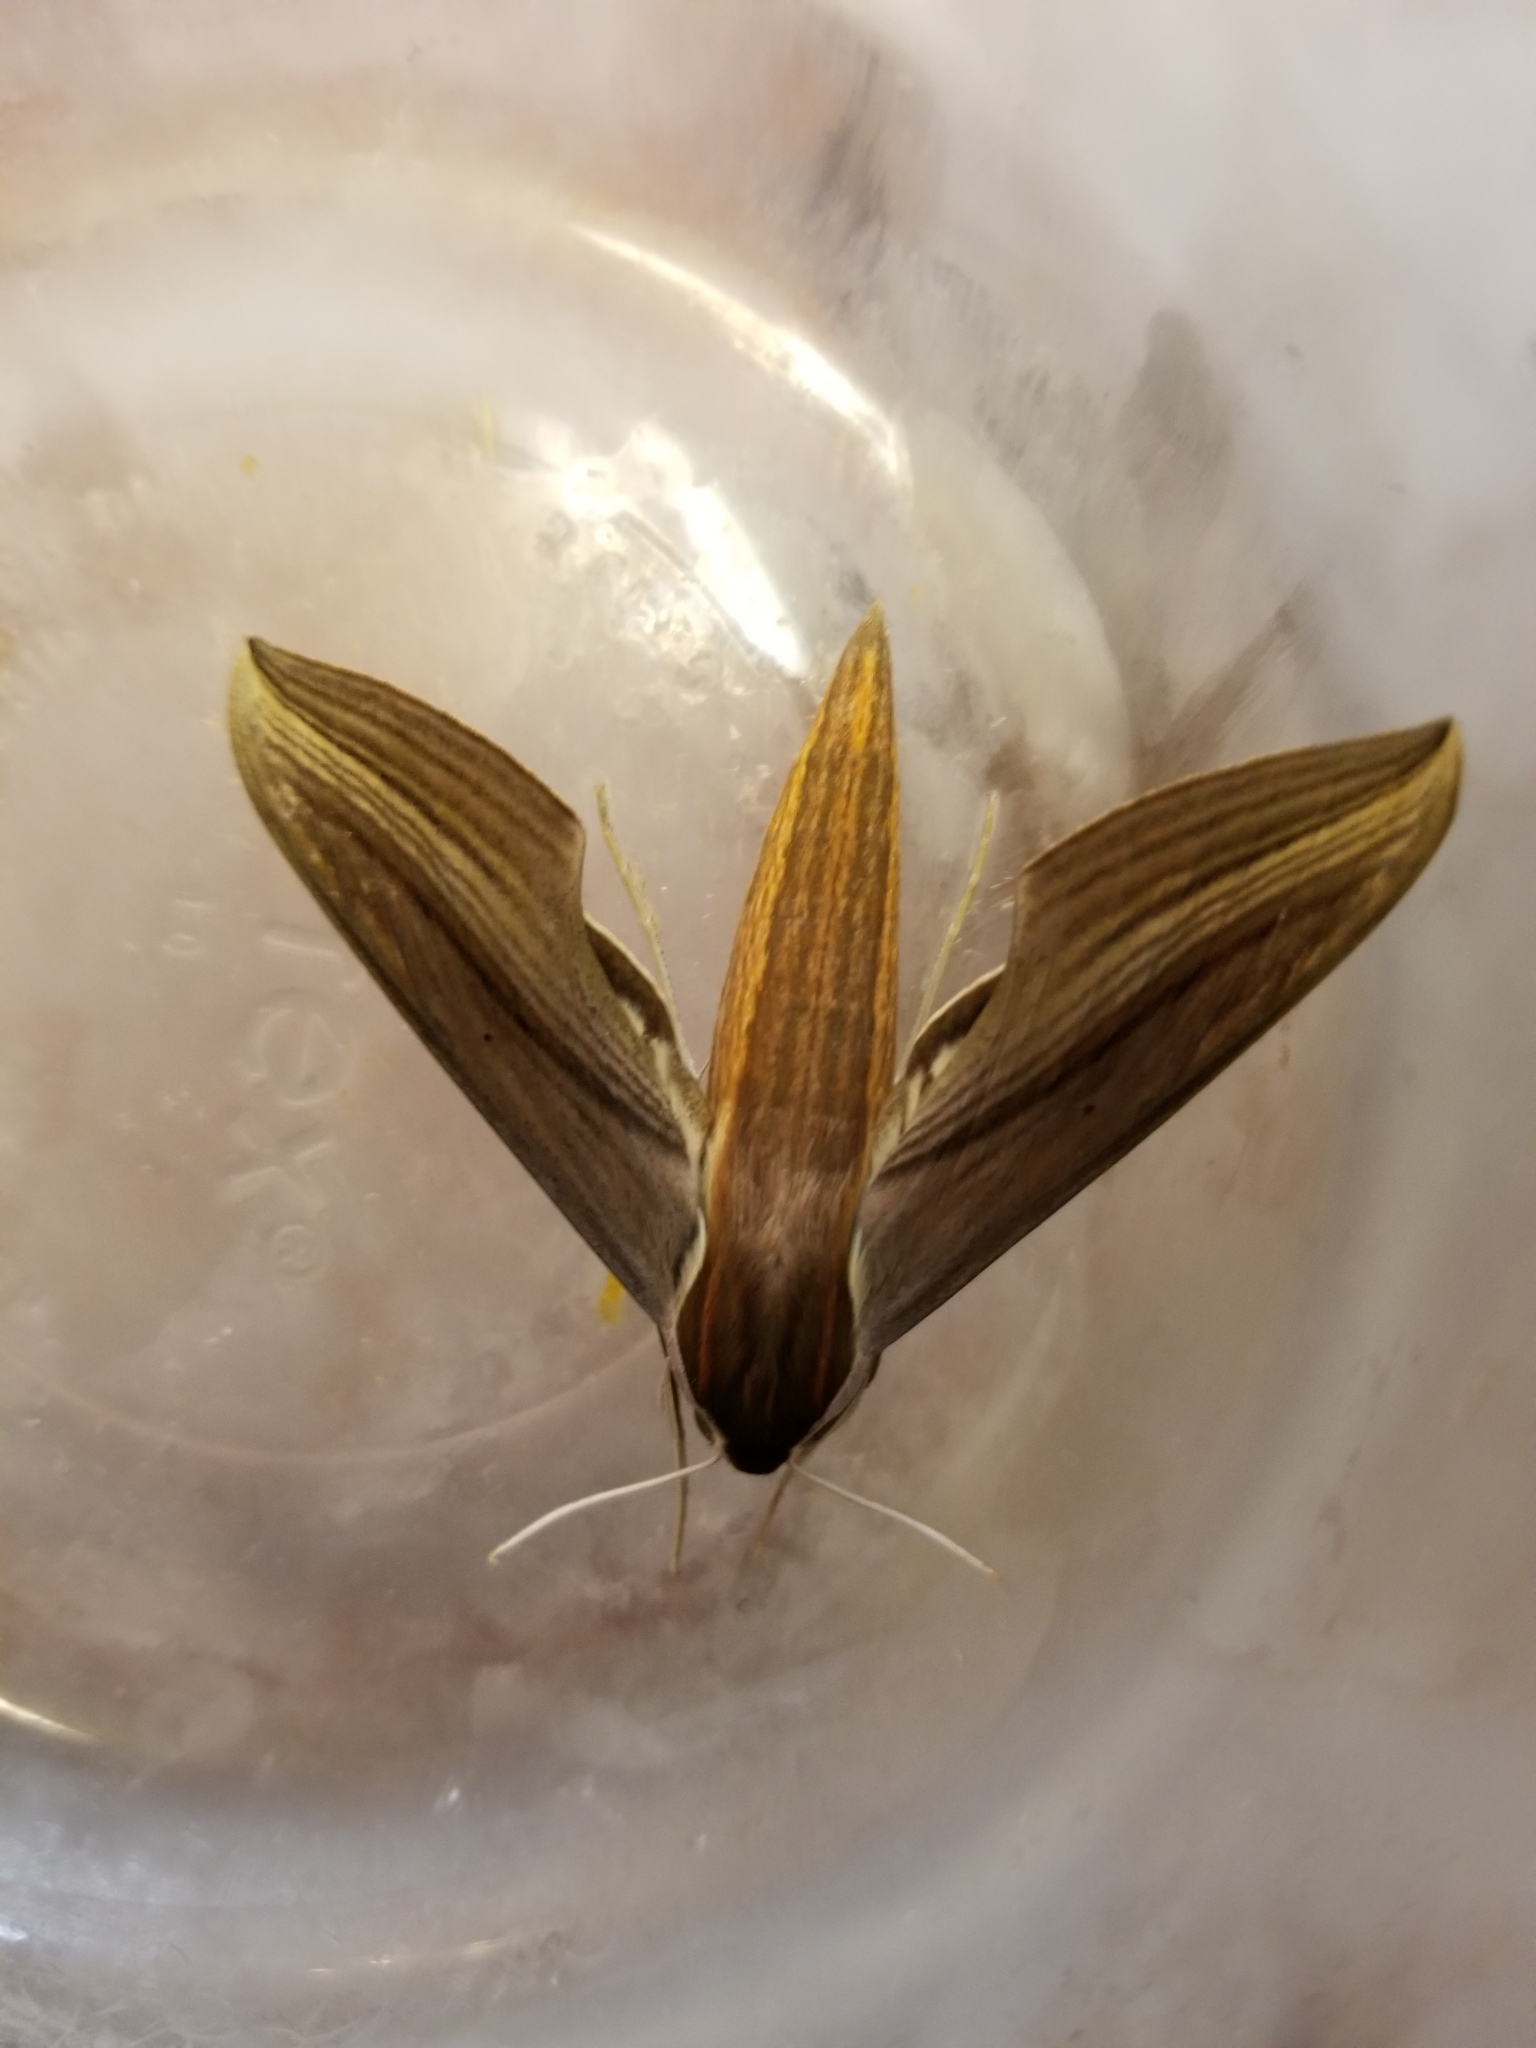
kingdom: Animalia
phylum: Arthropoda
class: Insecta
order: Lepidoptera
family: Sphingidae
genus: Xylophanes
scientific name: Xylophanes tersa
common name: Tersa sphinx
